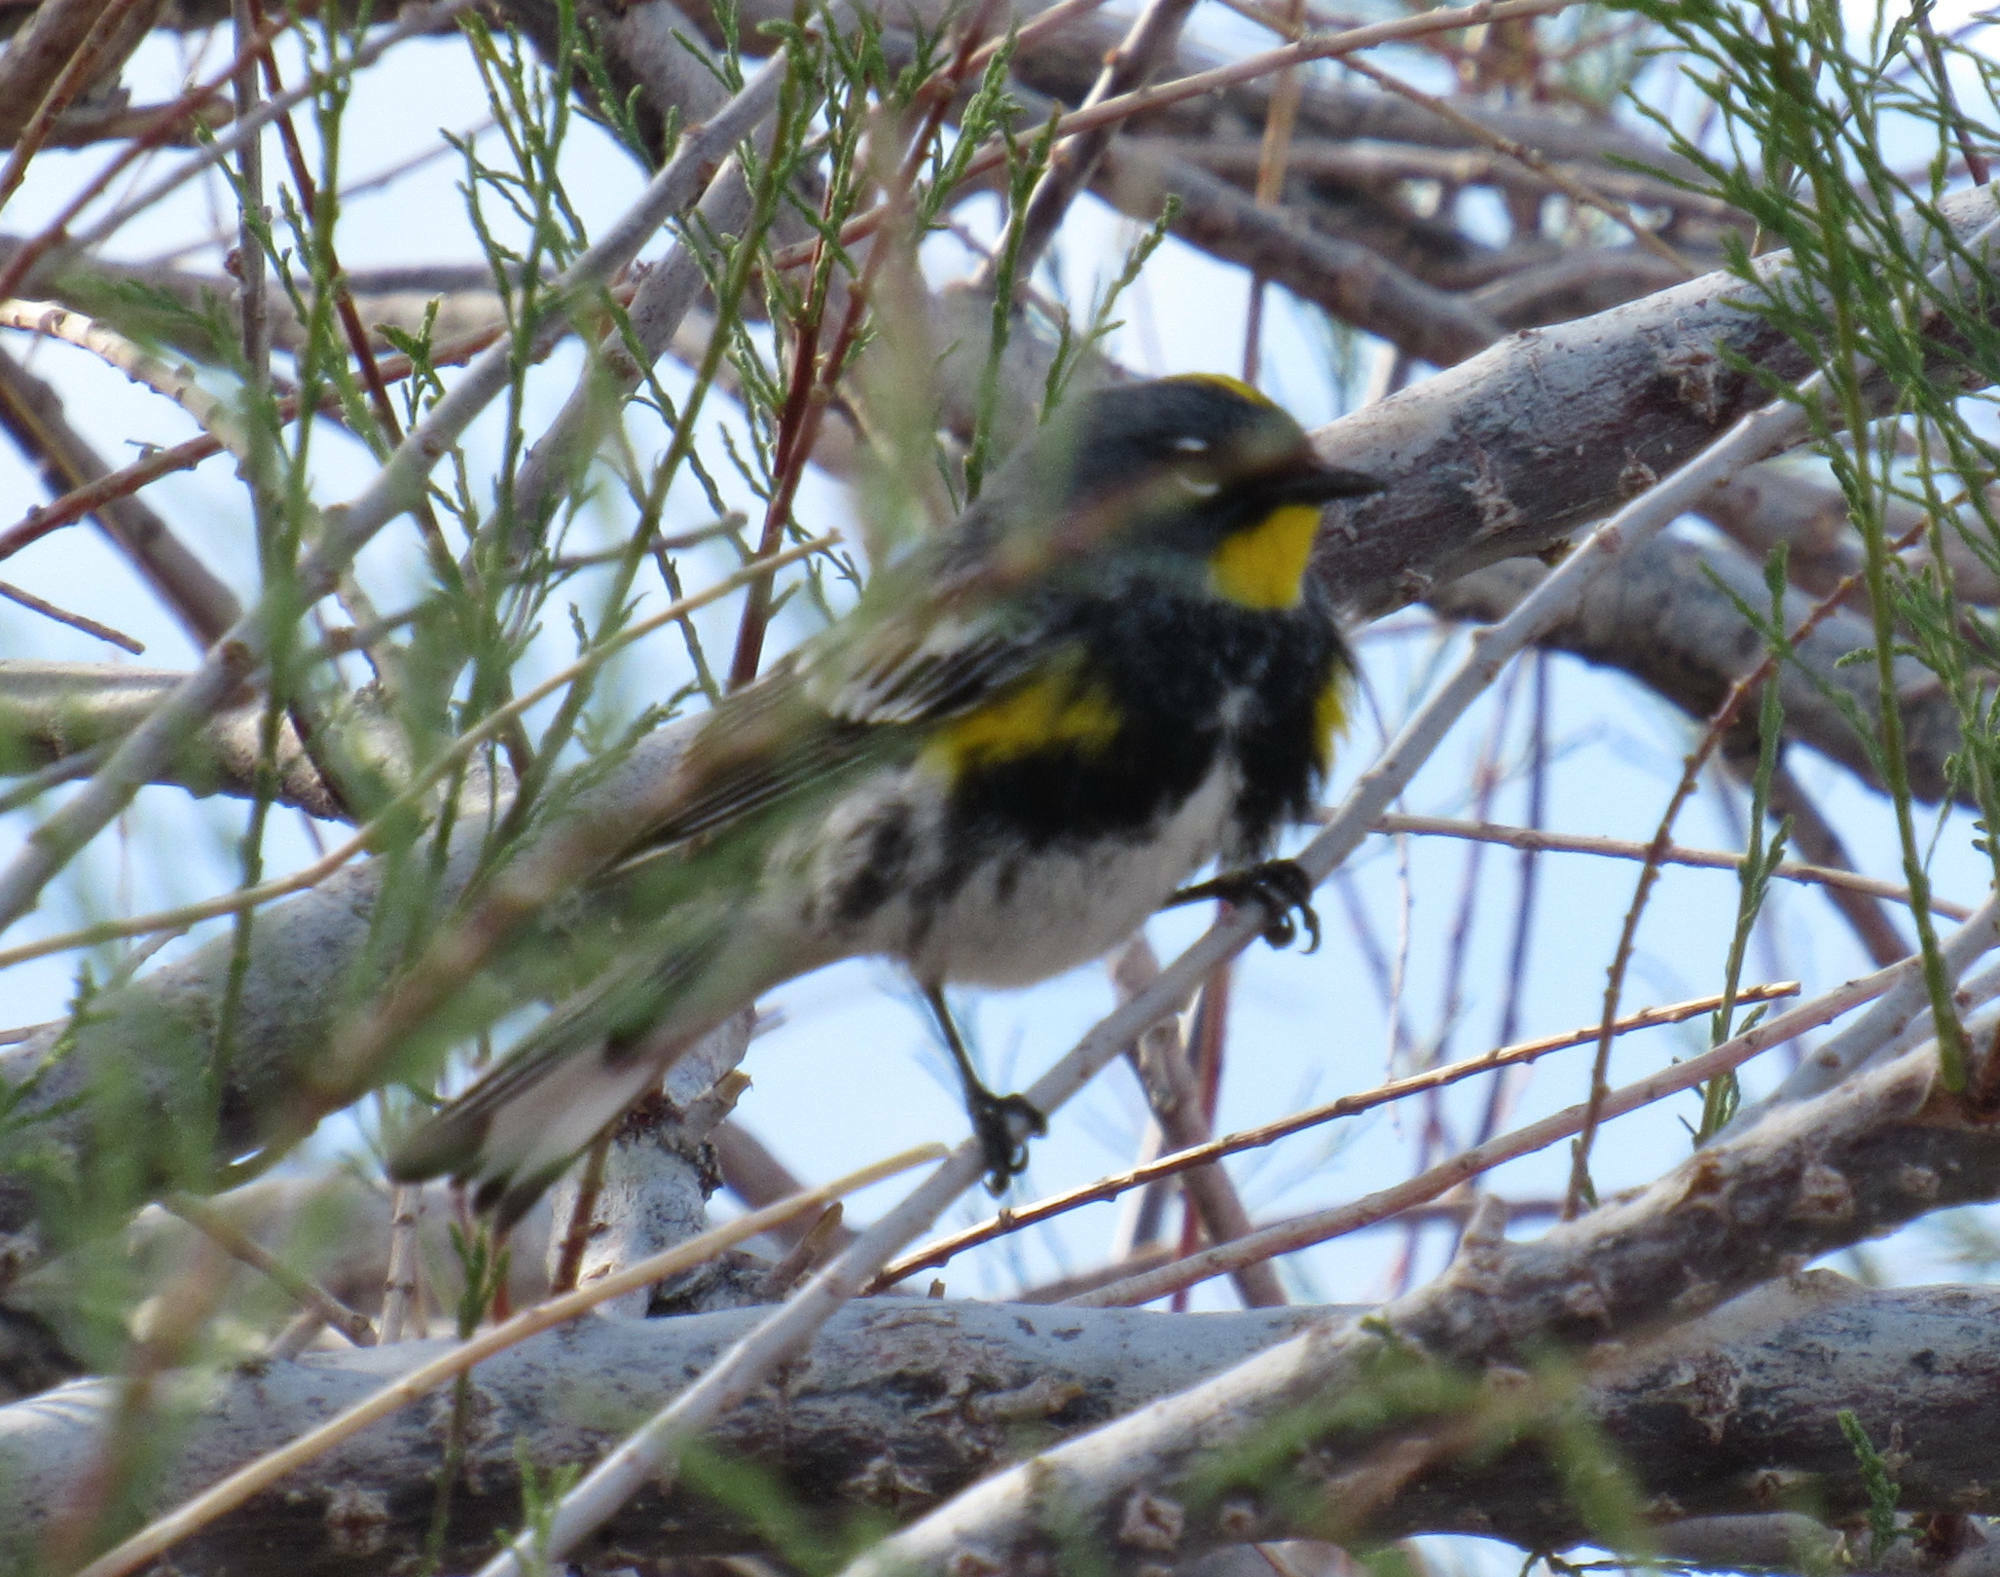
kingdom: Animalia
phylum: Chordata
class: Aves
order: Passeriformes
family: Parulidae
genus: Setophaga
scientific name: Setophaga auduboni
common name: Audubon's warbler
